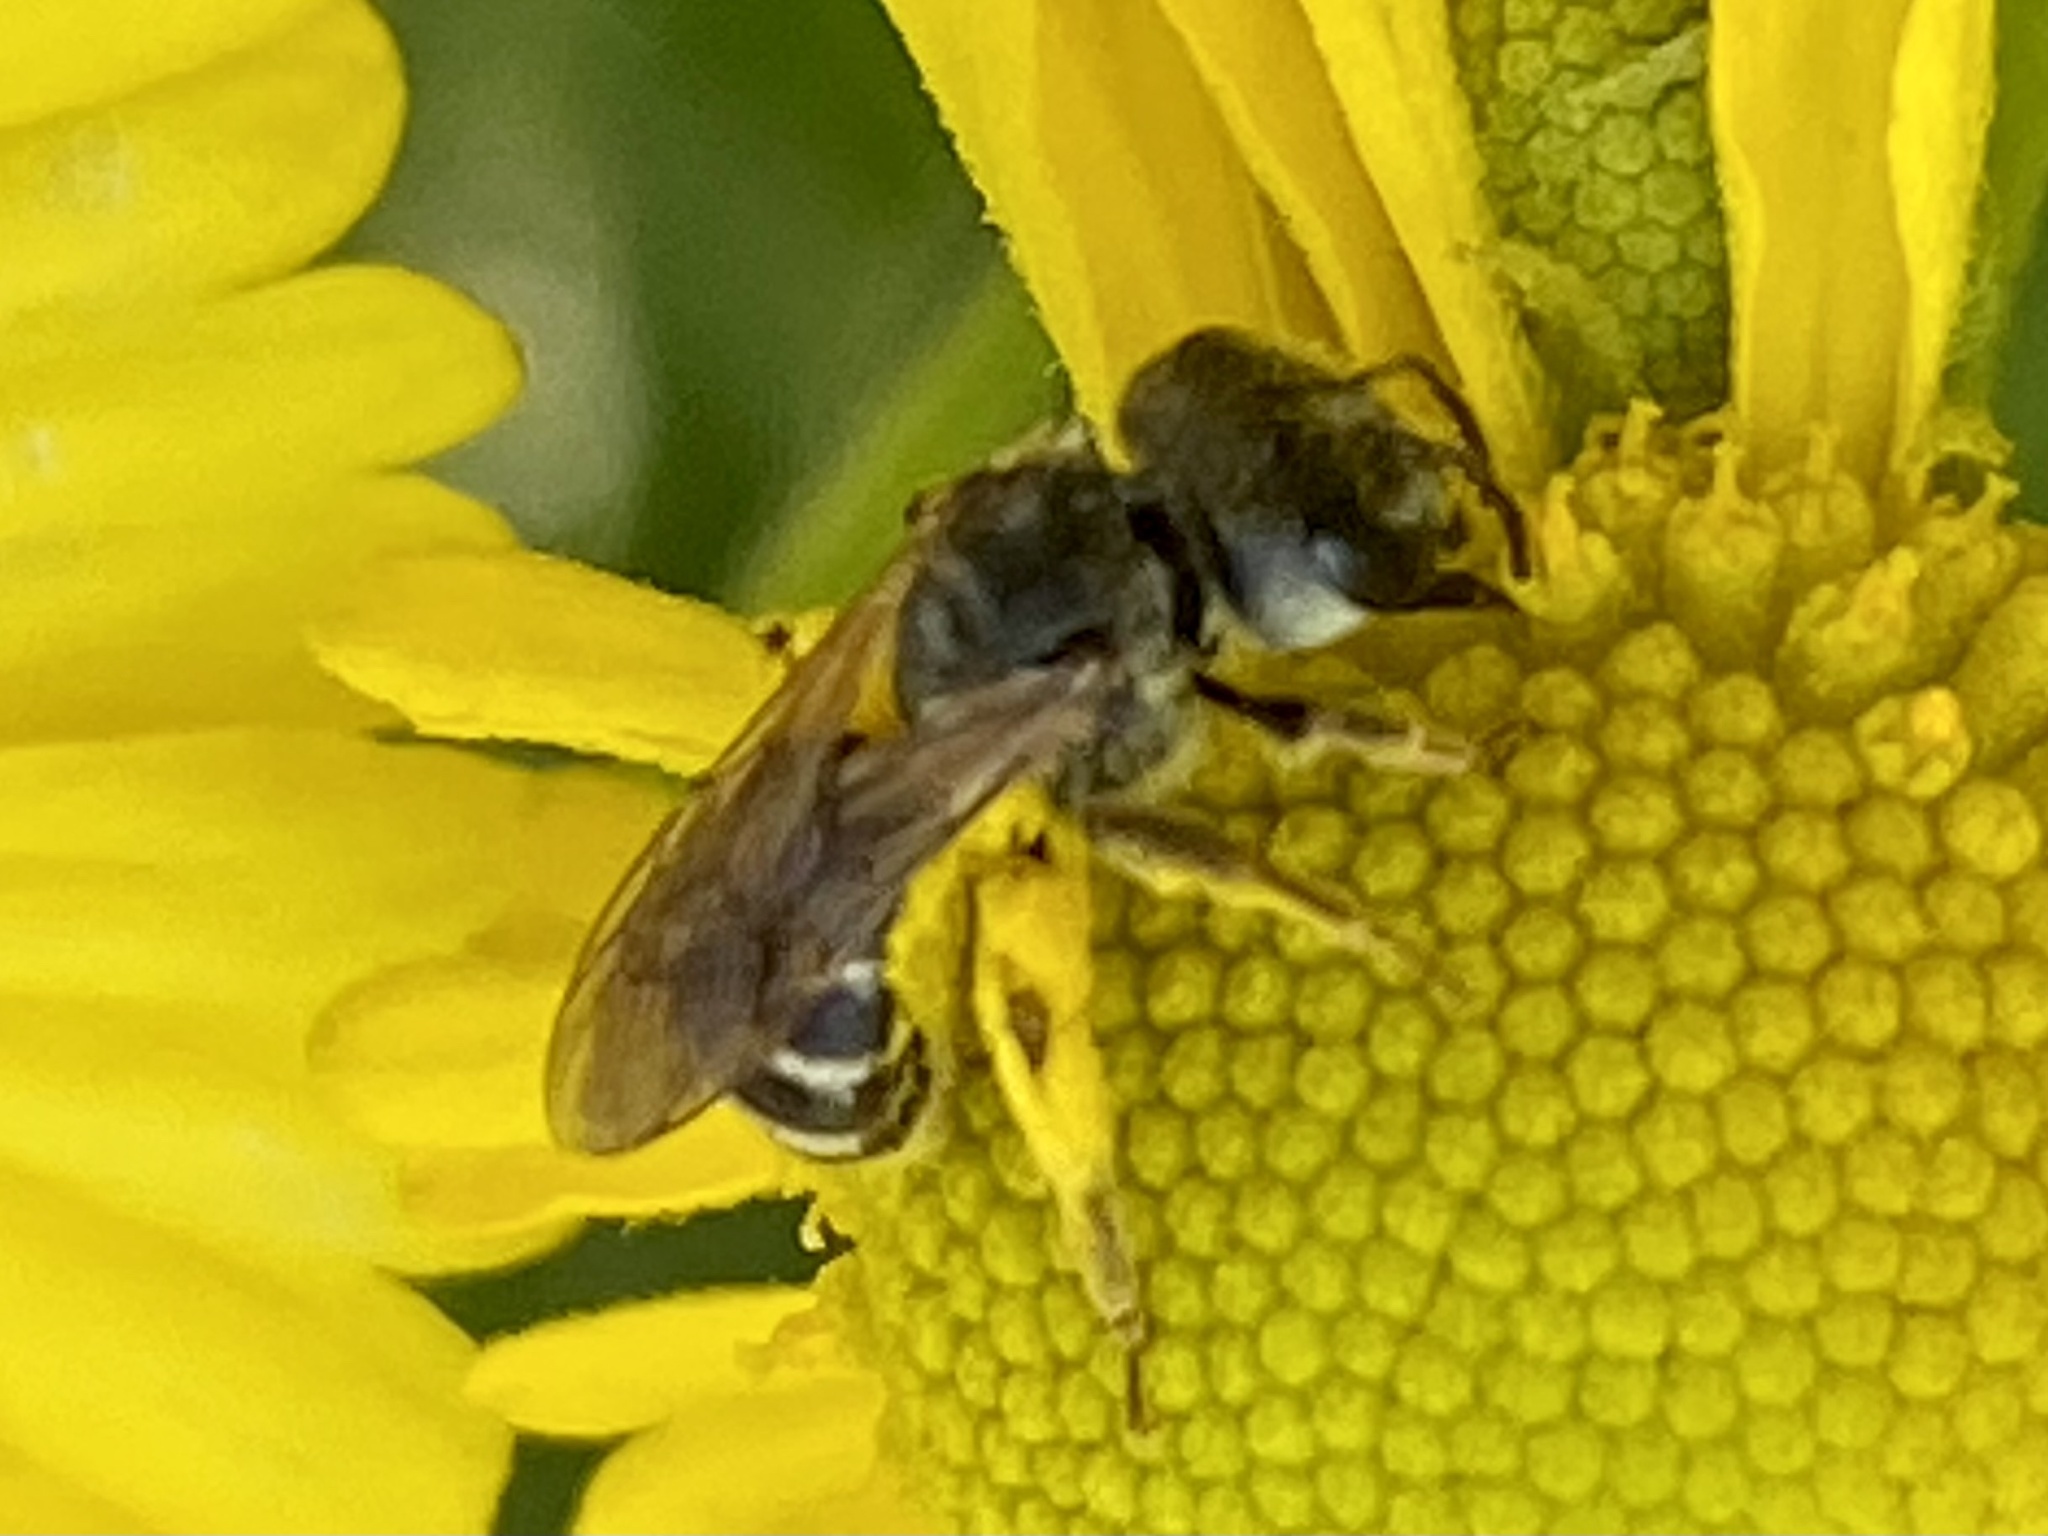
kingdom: Animalia
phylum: Arthropoda
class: Insecta
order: Hymenoptera
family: Halictidae
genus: Halictus
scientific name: Halictus ligatus
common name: Ligated furrow bee
